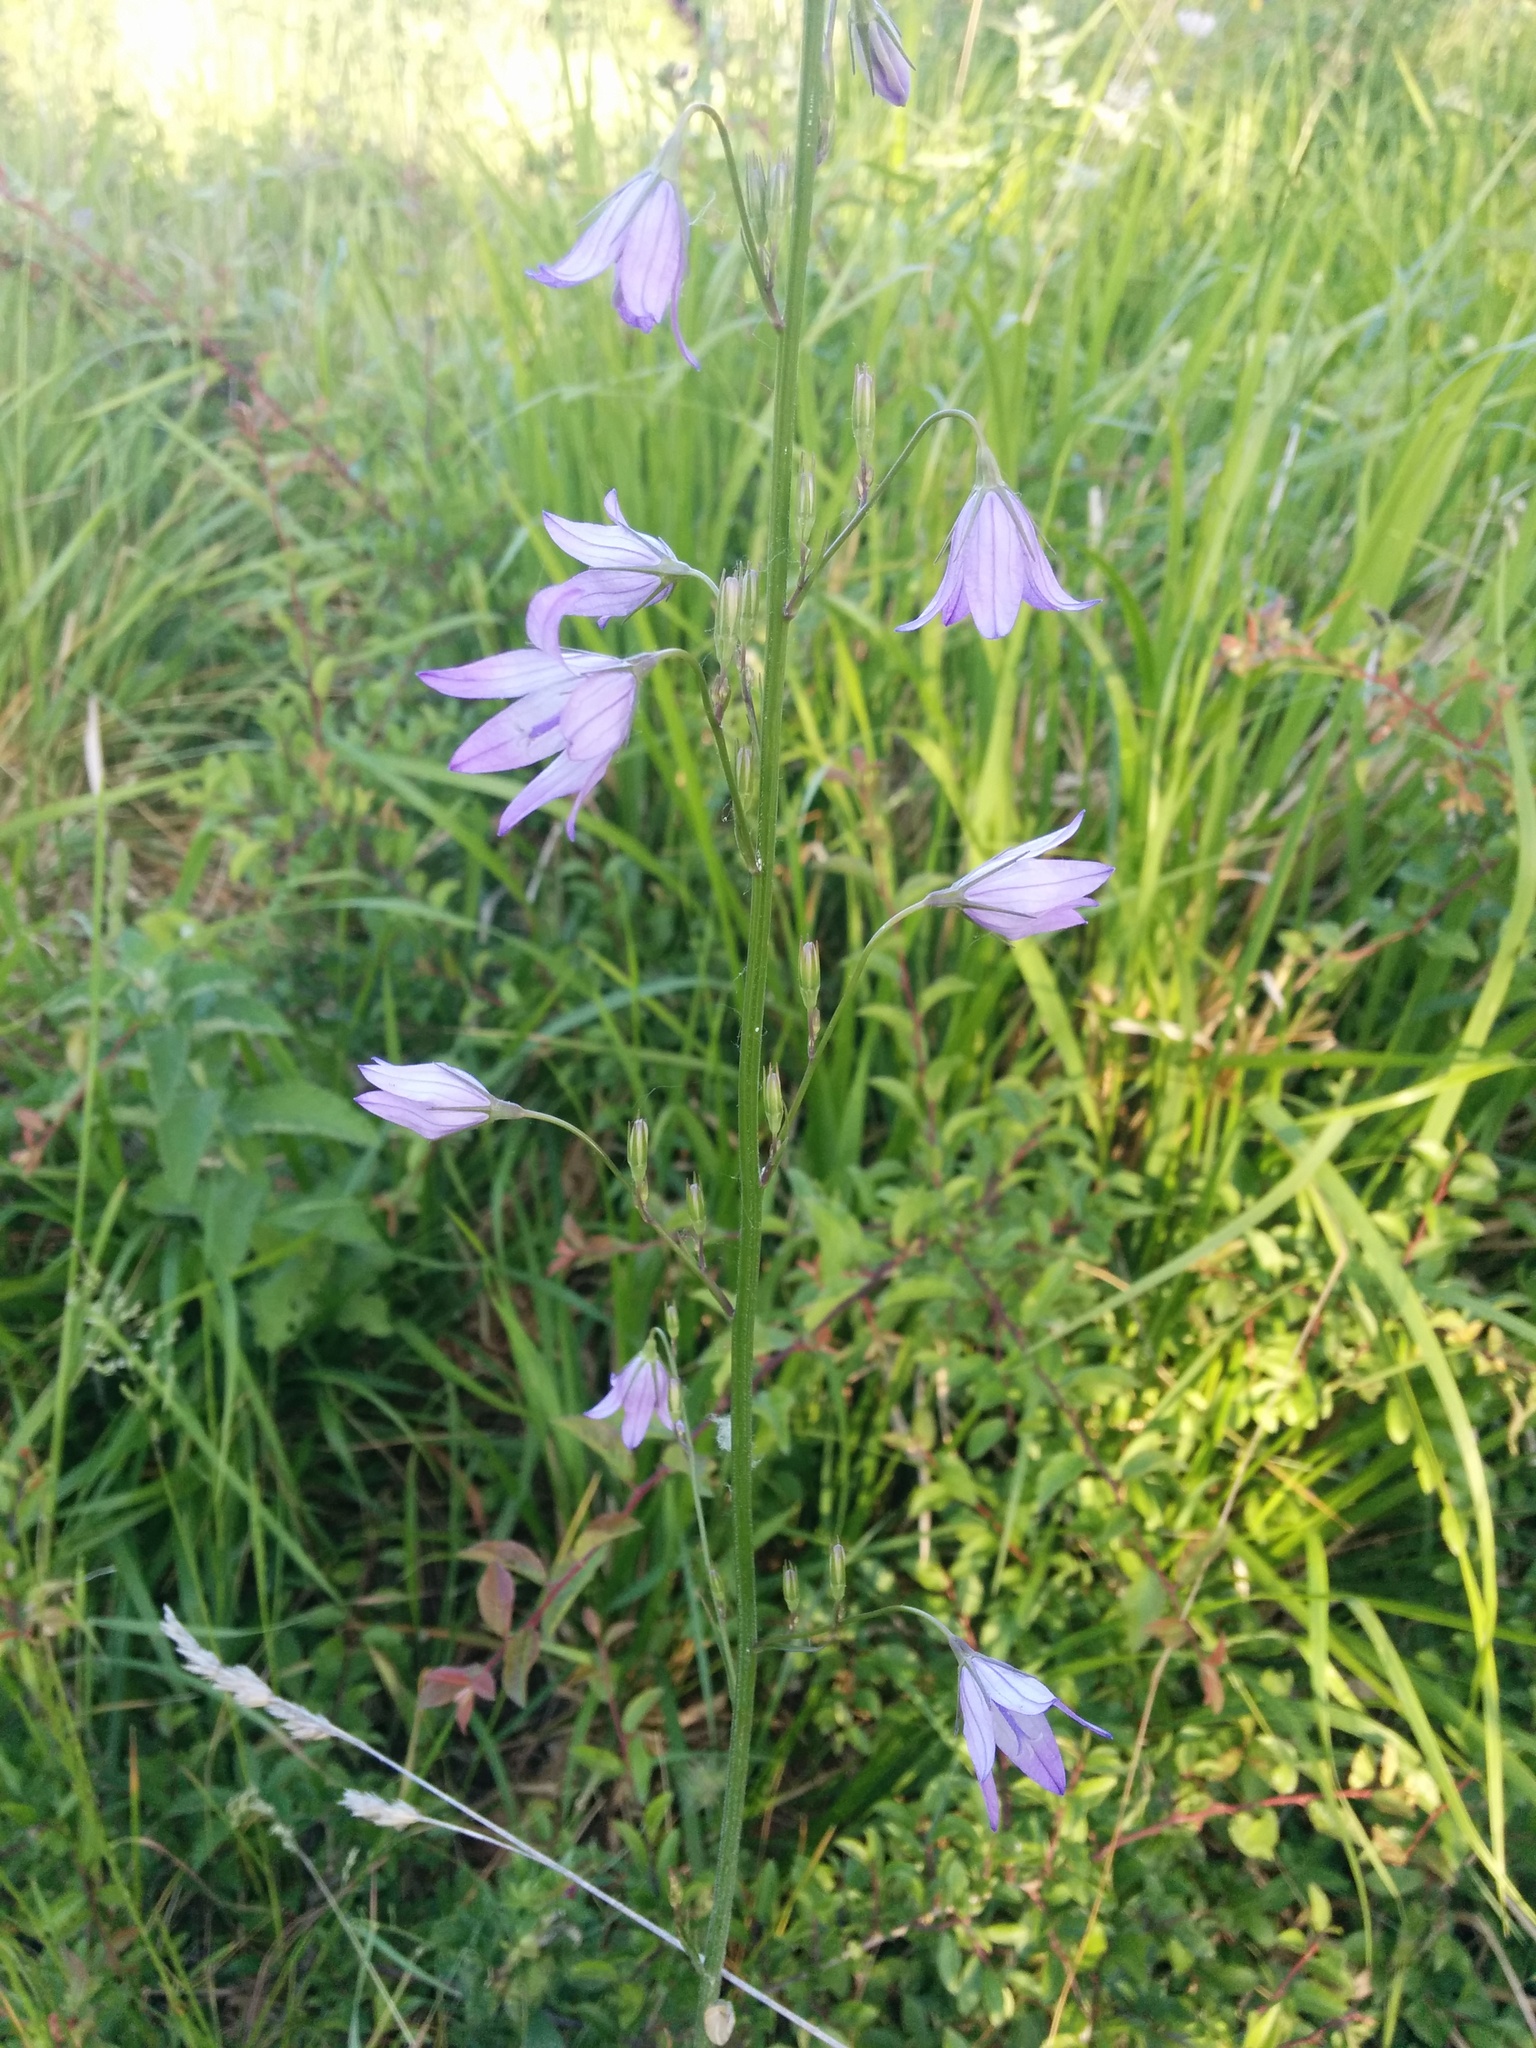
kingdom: Plantae
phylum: Tracheophyta
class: Magnoliopsida
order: Asterales
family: Campanulaceae
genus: Campanula
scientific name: Campanula rapunculus
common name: Rampion bellflower
